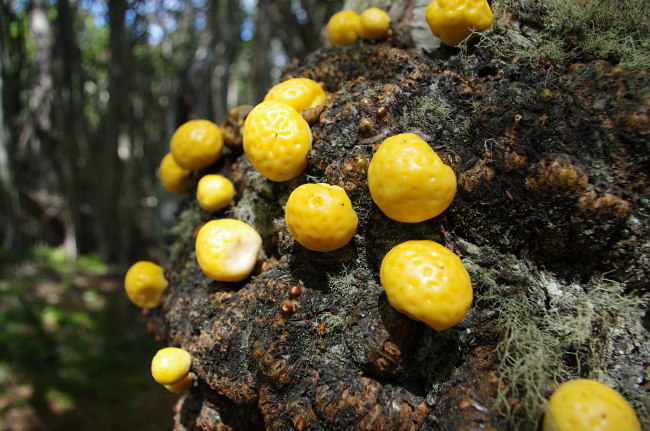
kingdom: Fungi
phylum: Ascomycota
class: Leotiomycetes
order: Cyttariales
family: Cyttariaceae
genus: Cyttaria
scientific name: Cyttaria hariotii
